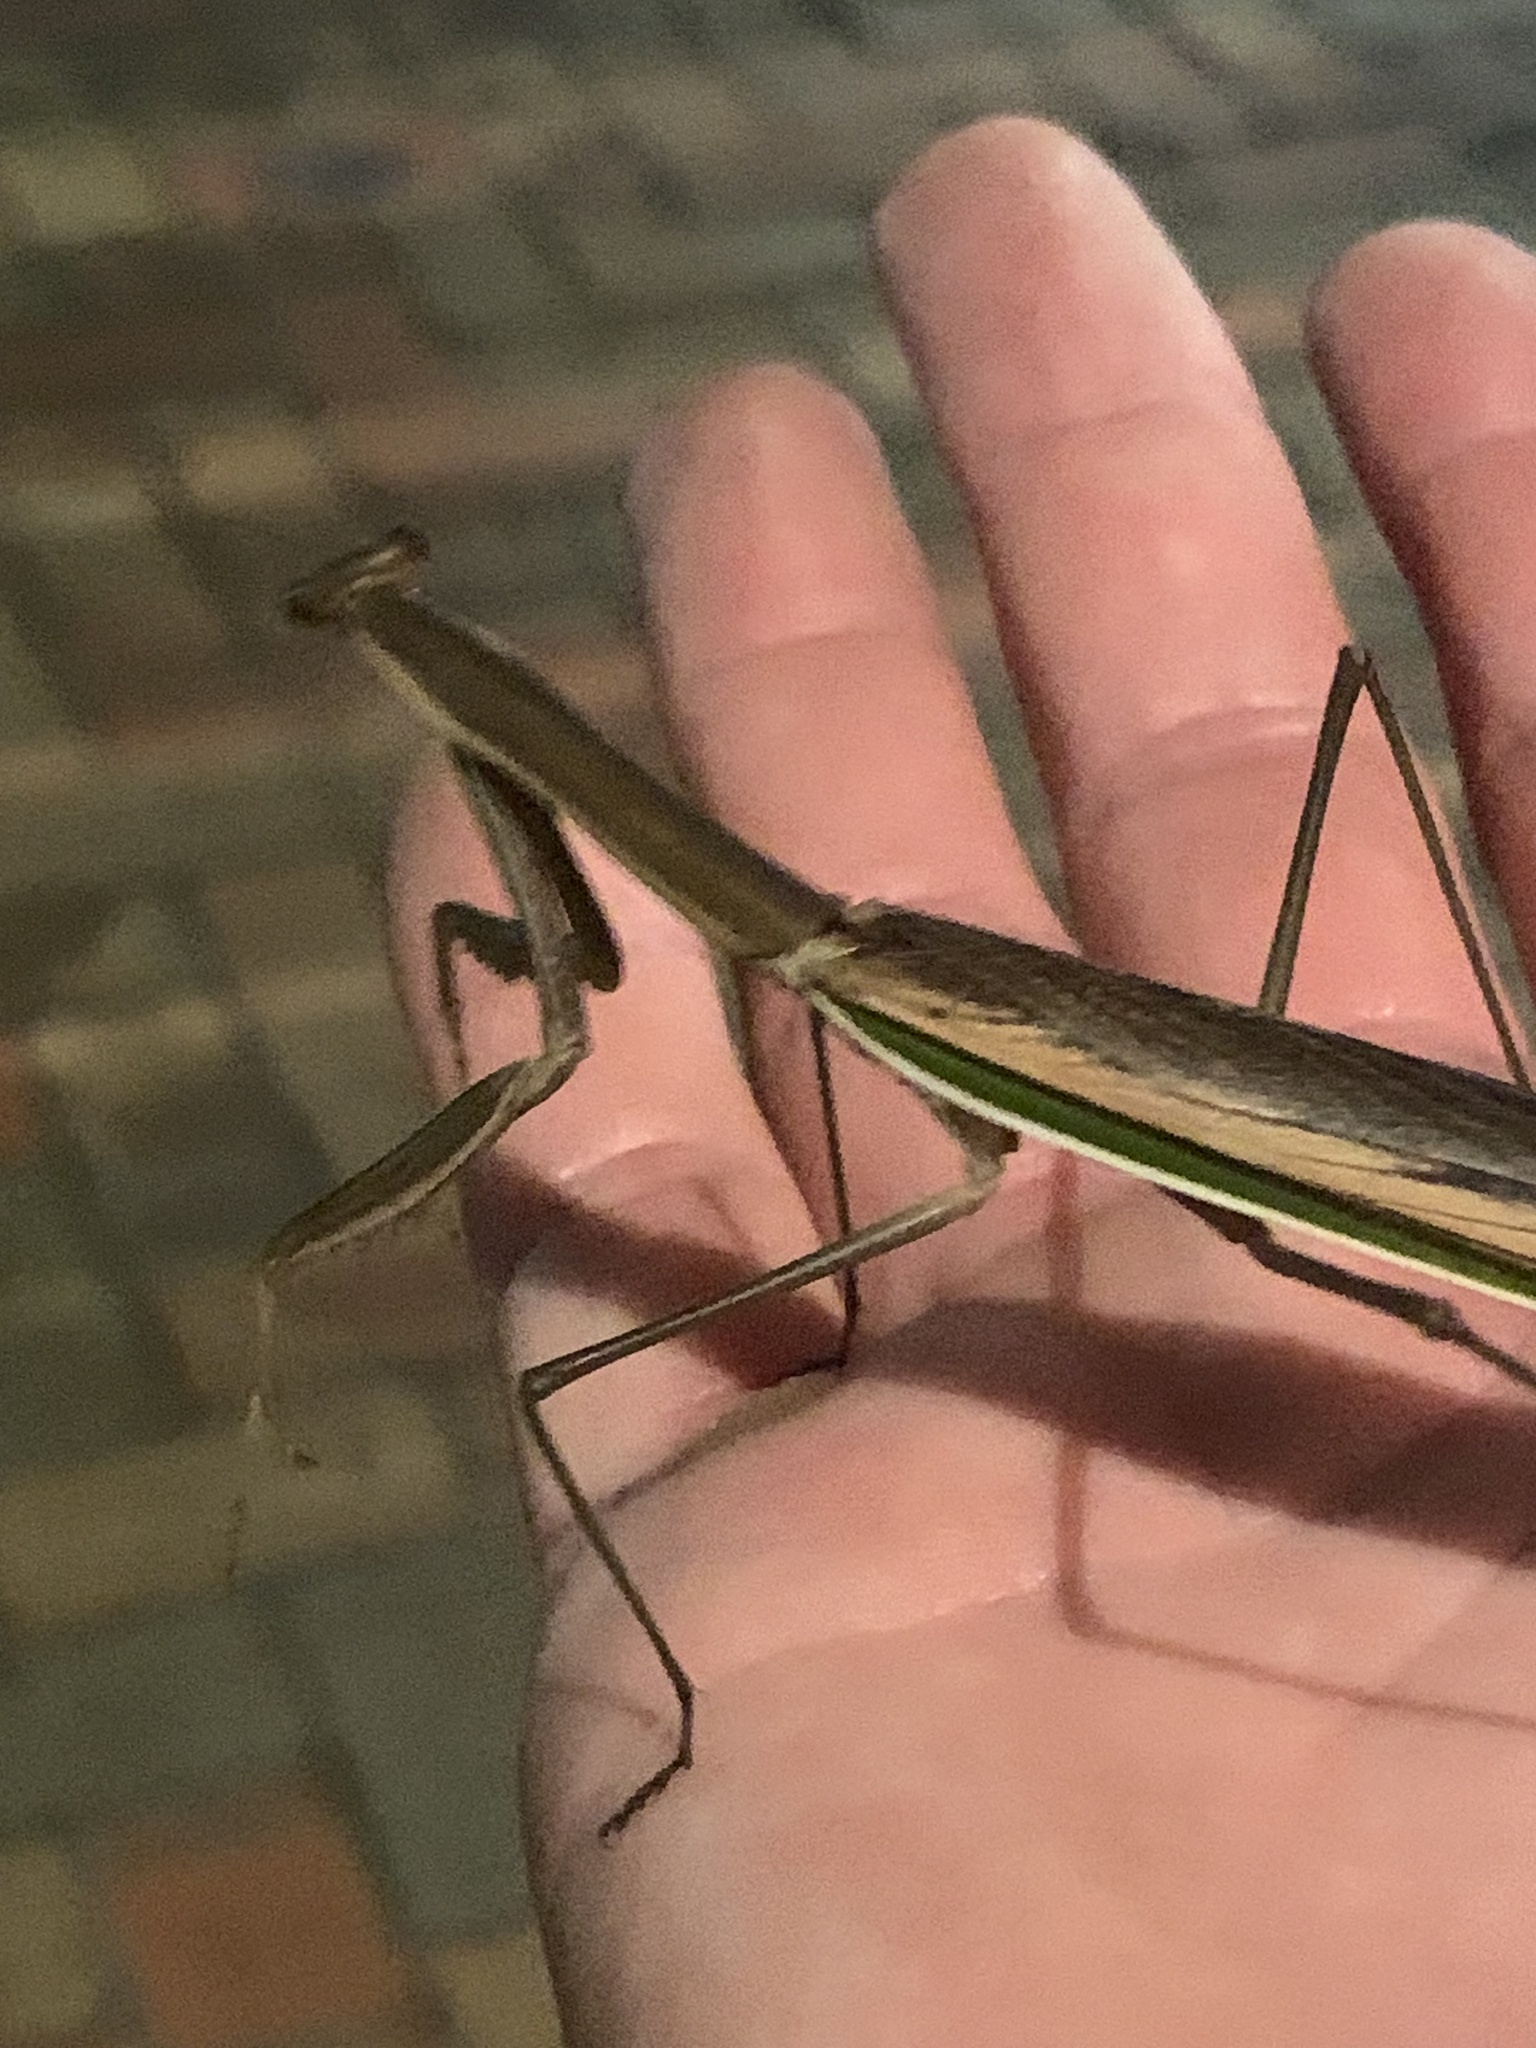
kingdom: Animalia
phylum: Arthropoda
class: Insecta
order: Mantodea
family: Mantidae
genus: Tenodera
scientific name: Tenodera australasiae
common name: Purple-winged mantis
